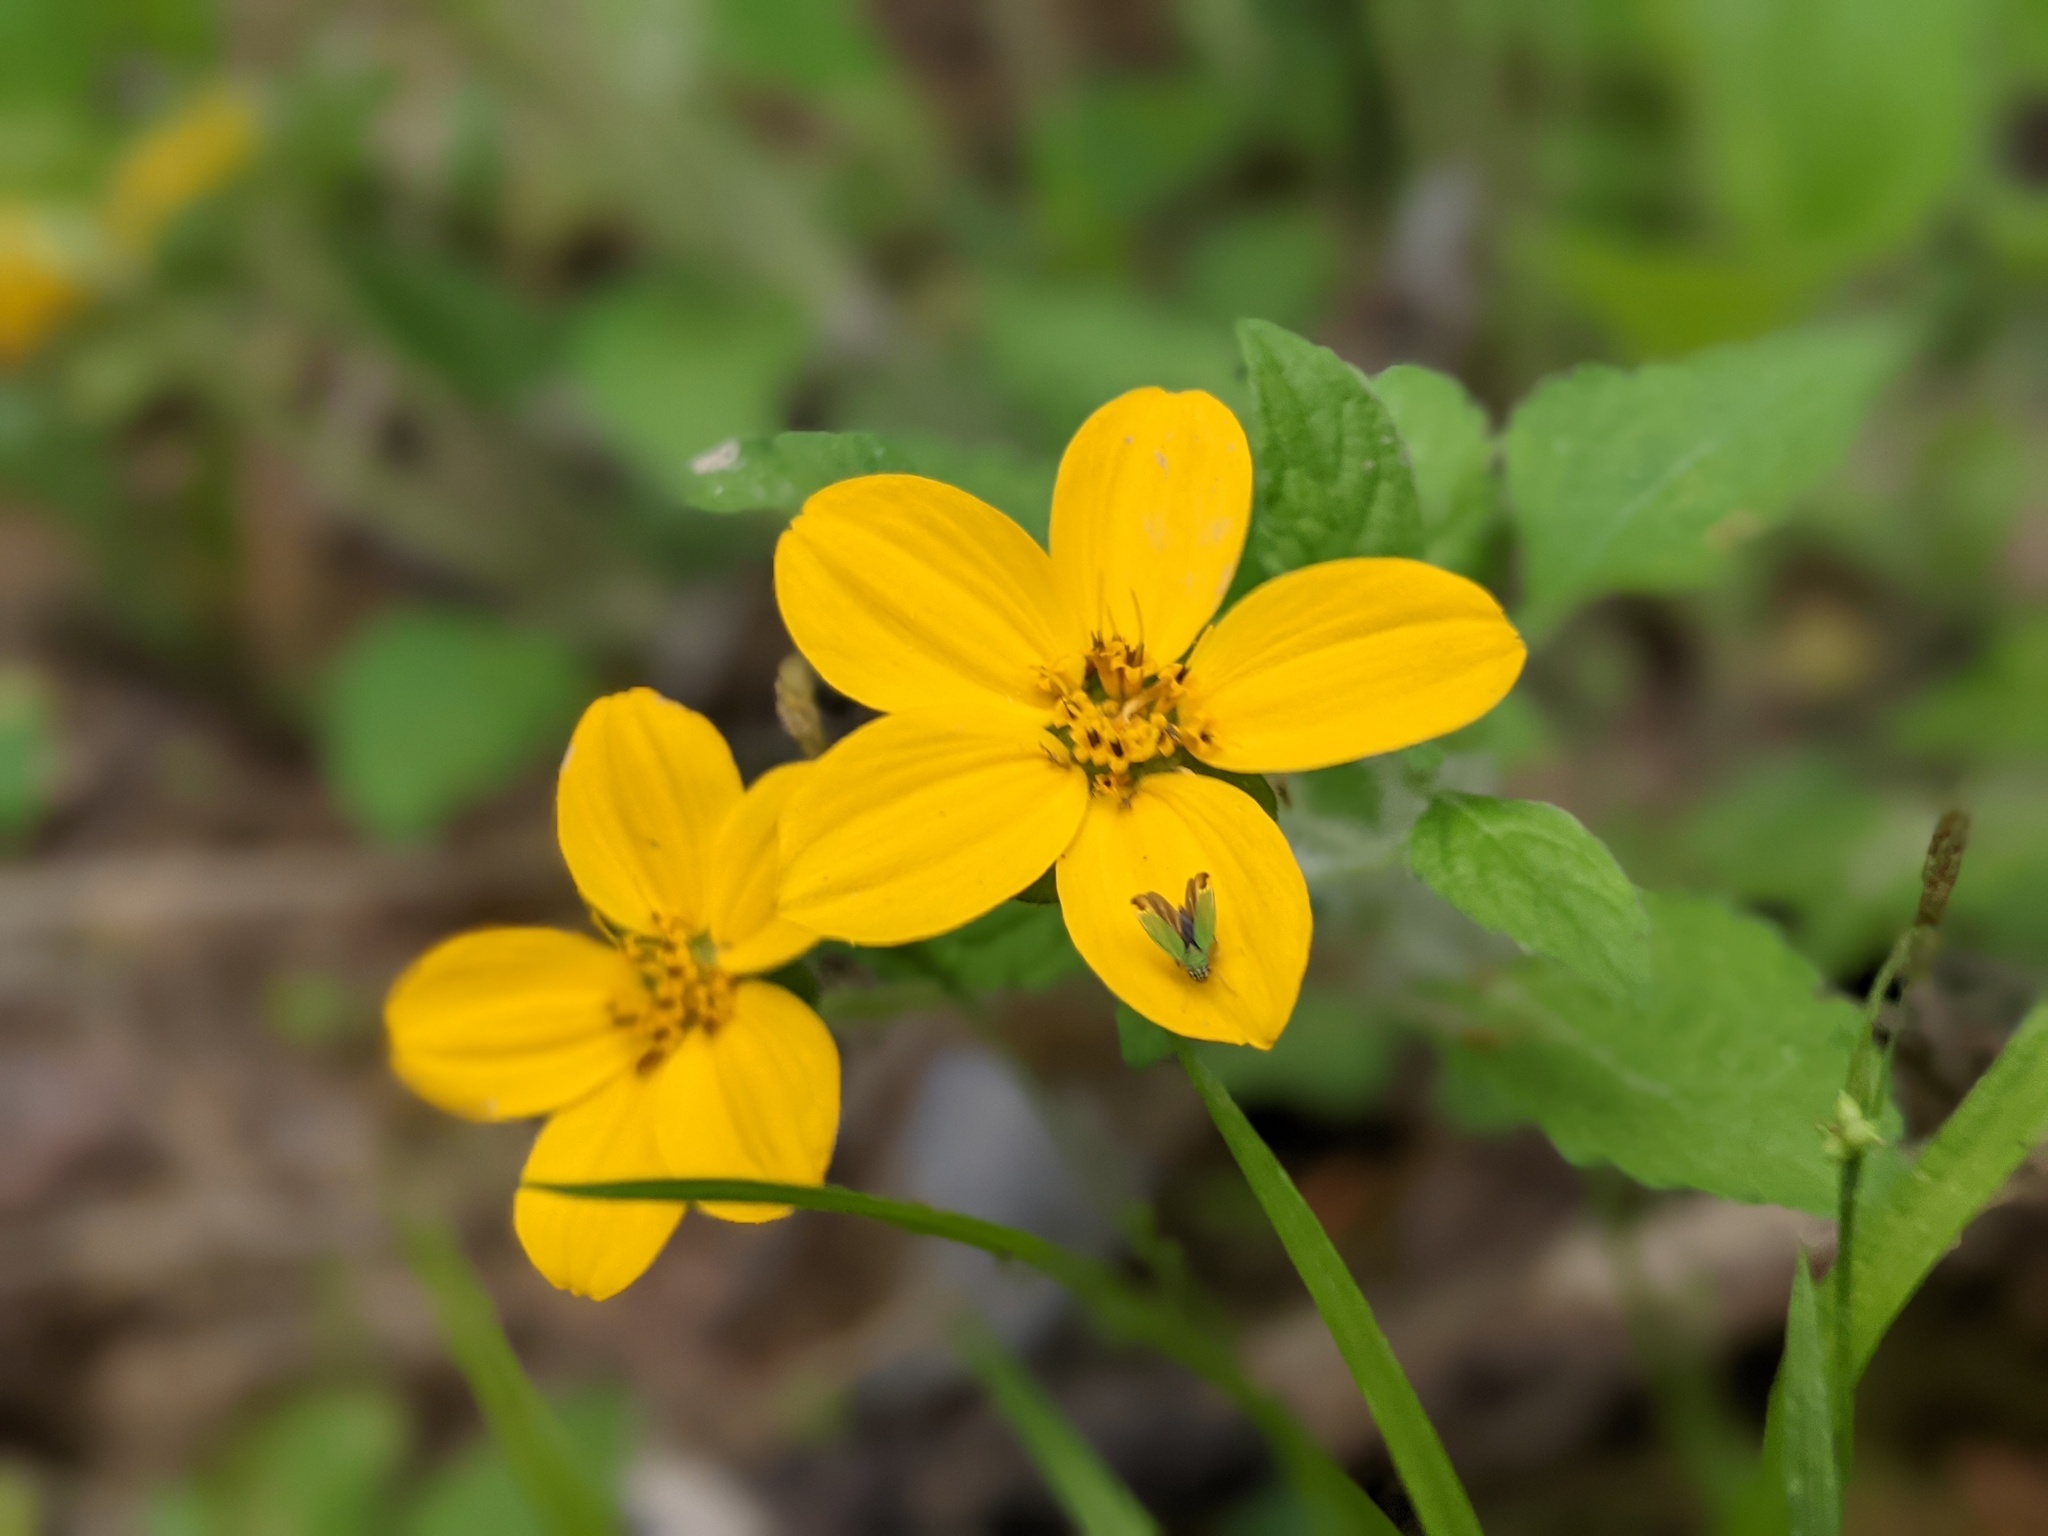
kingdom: Plantae
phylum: Tracheophyta
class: Magnoliopsida
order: Asterales
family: Asteraceae
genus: Chrysogonum
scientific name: Chrysogonum virginianum
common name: Golden-knee
